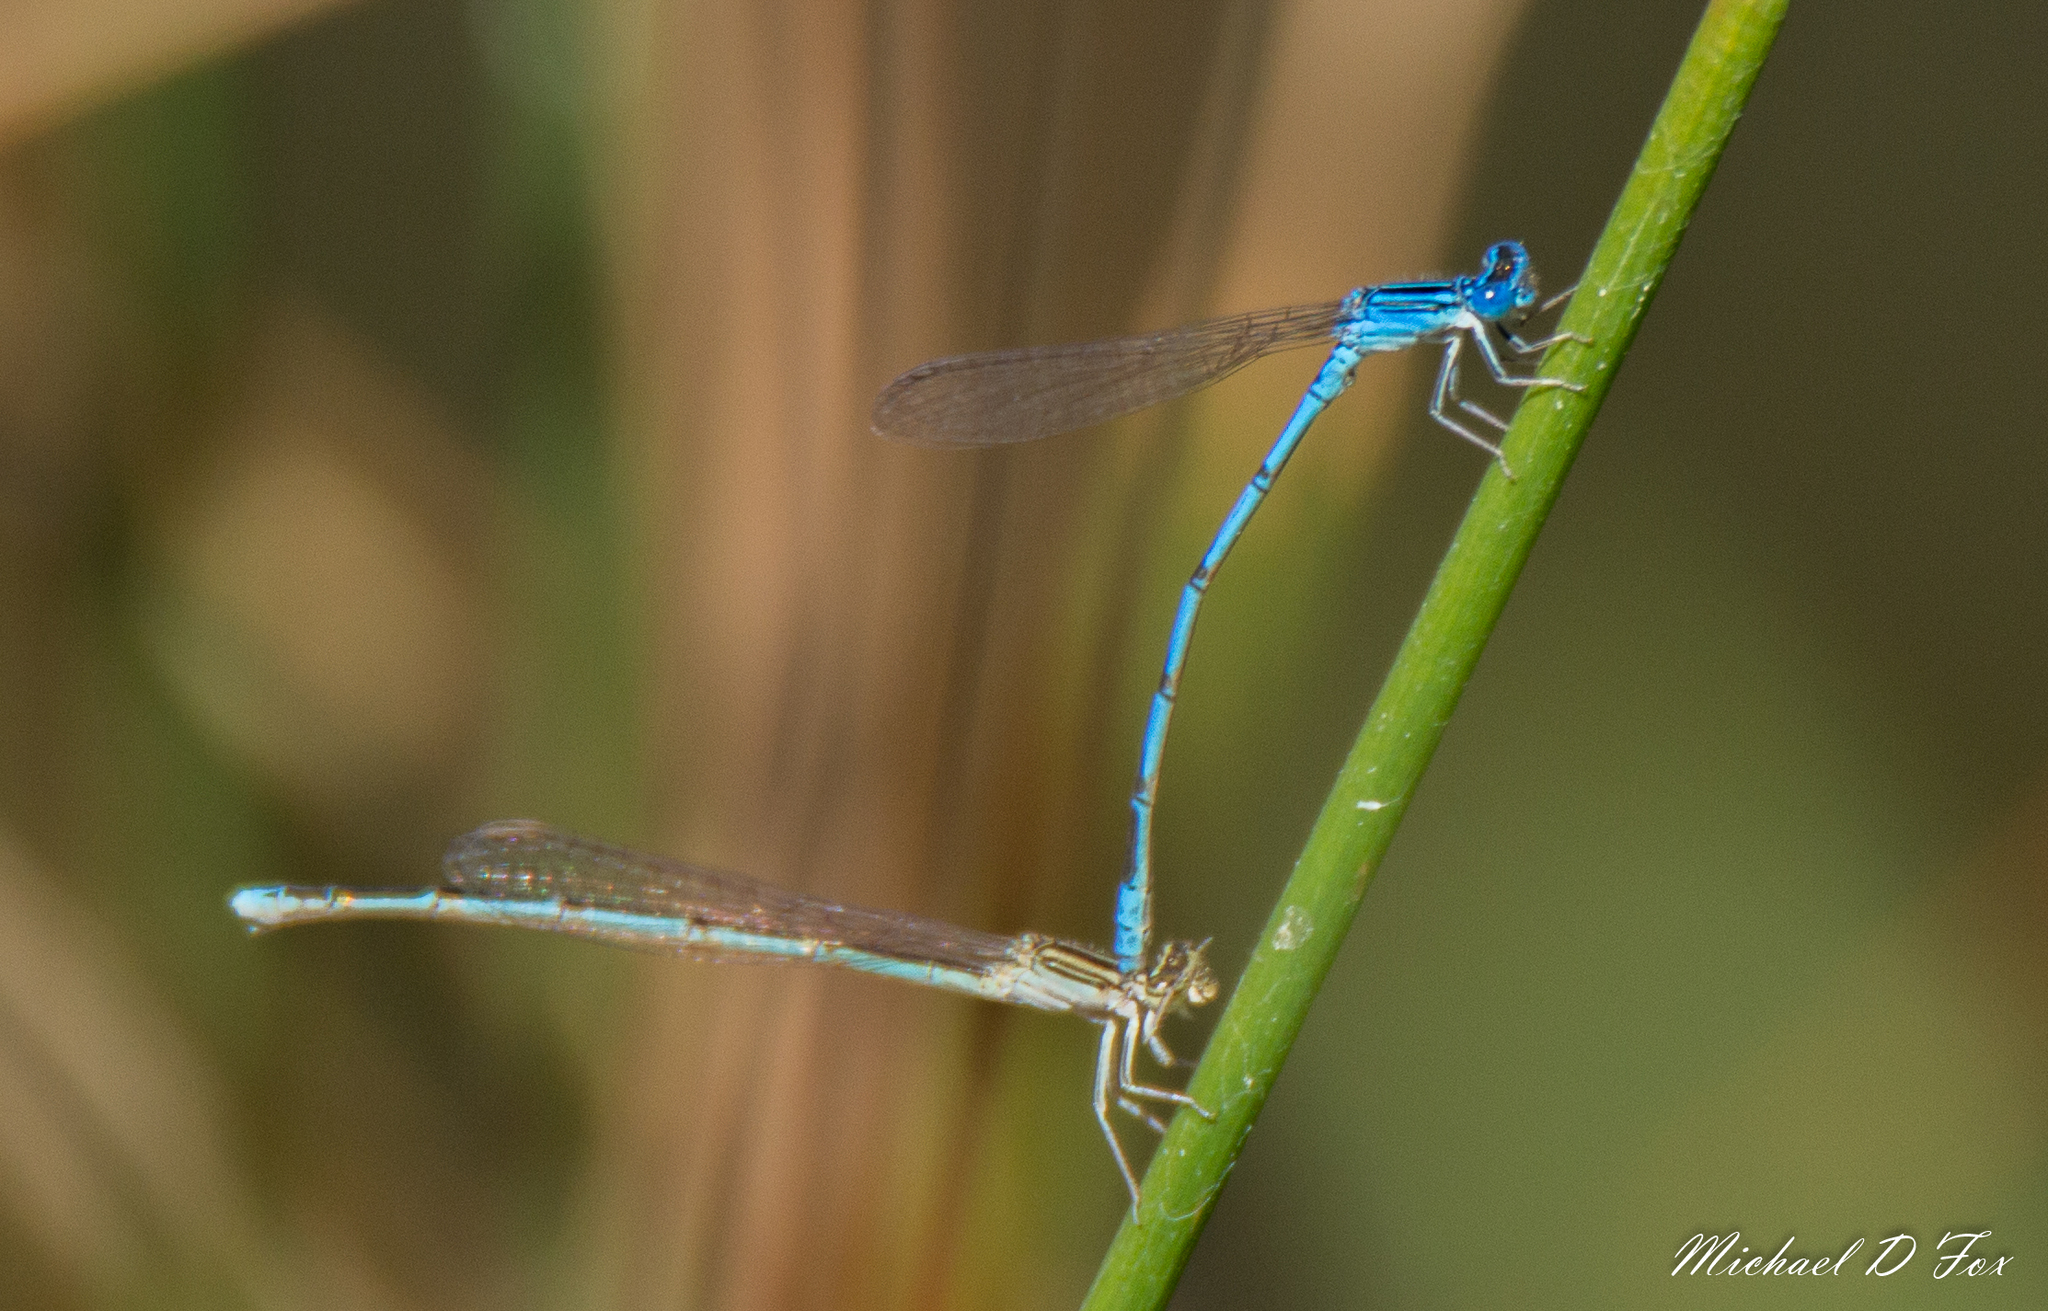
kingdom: Animalia
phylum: Arthropoda
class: Insecta
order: Odonata
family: Coenagrionidae
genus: Enallagma
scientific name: Enallagma basidens
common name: Double-striped bluet
